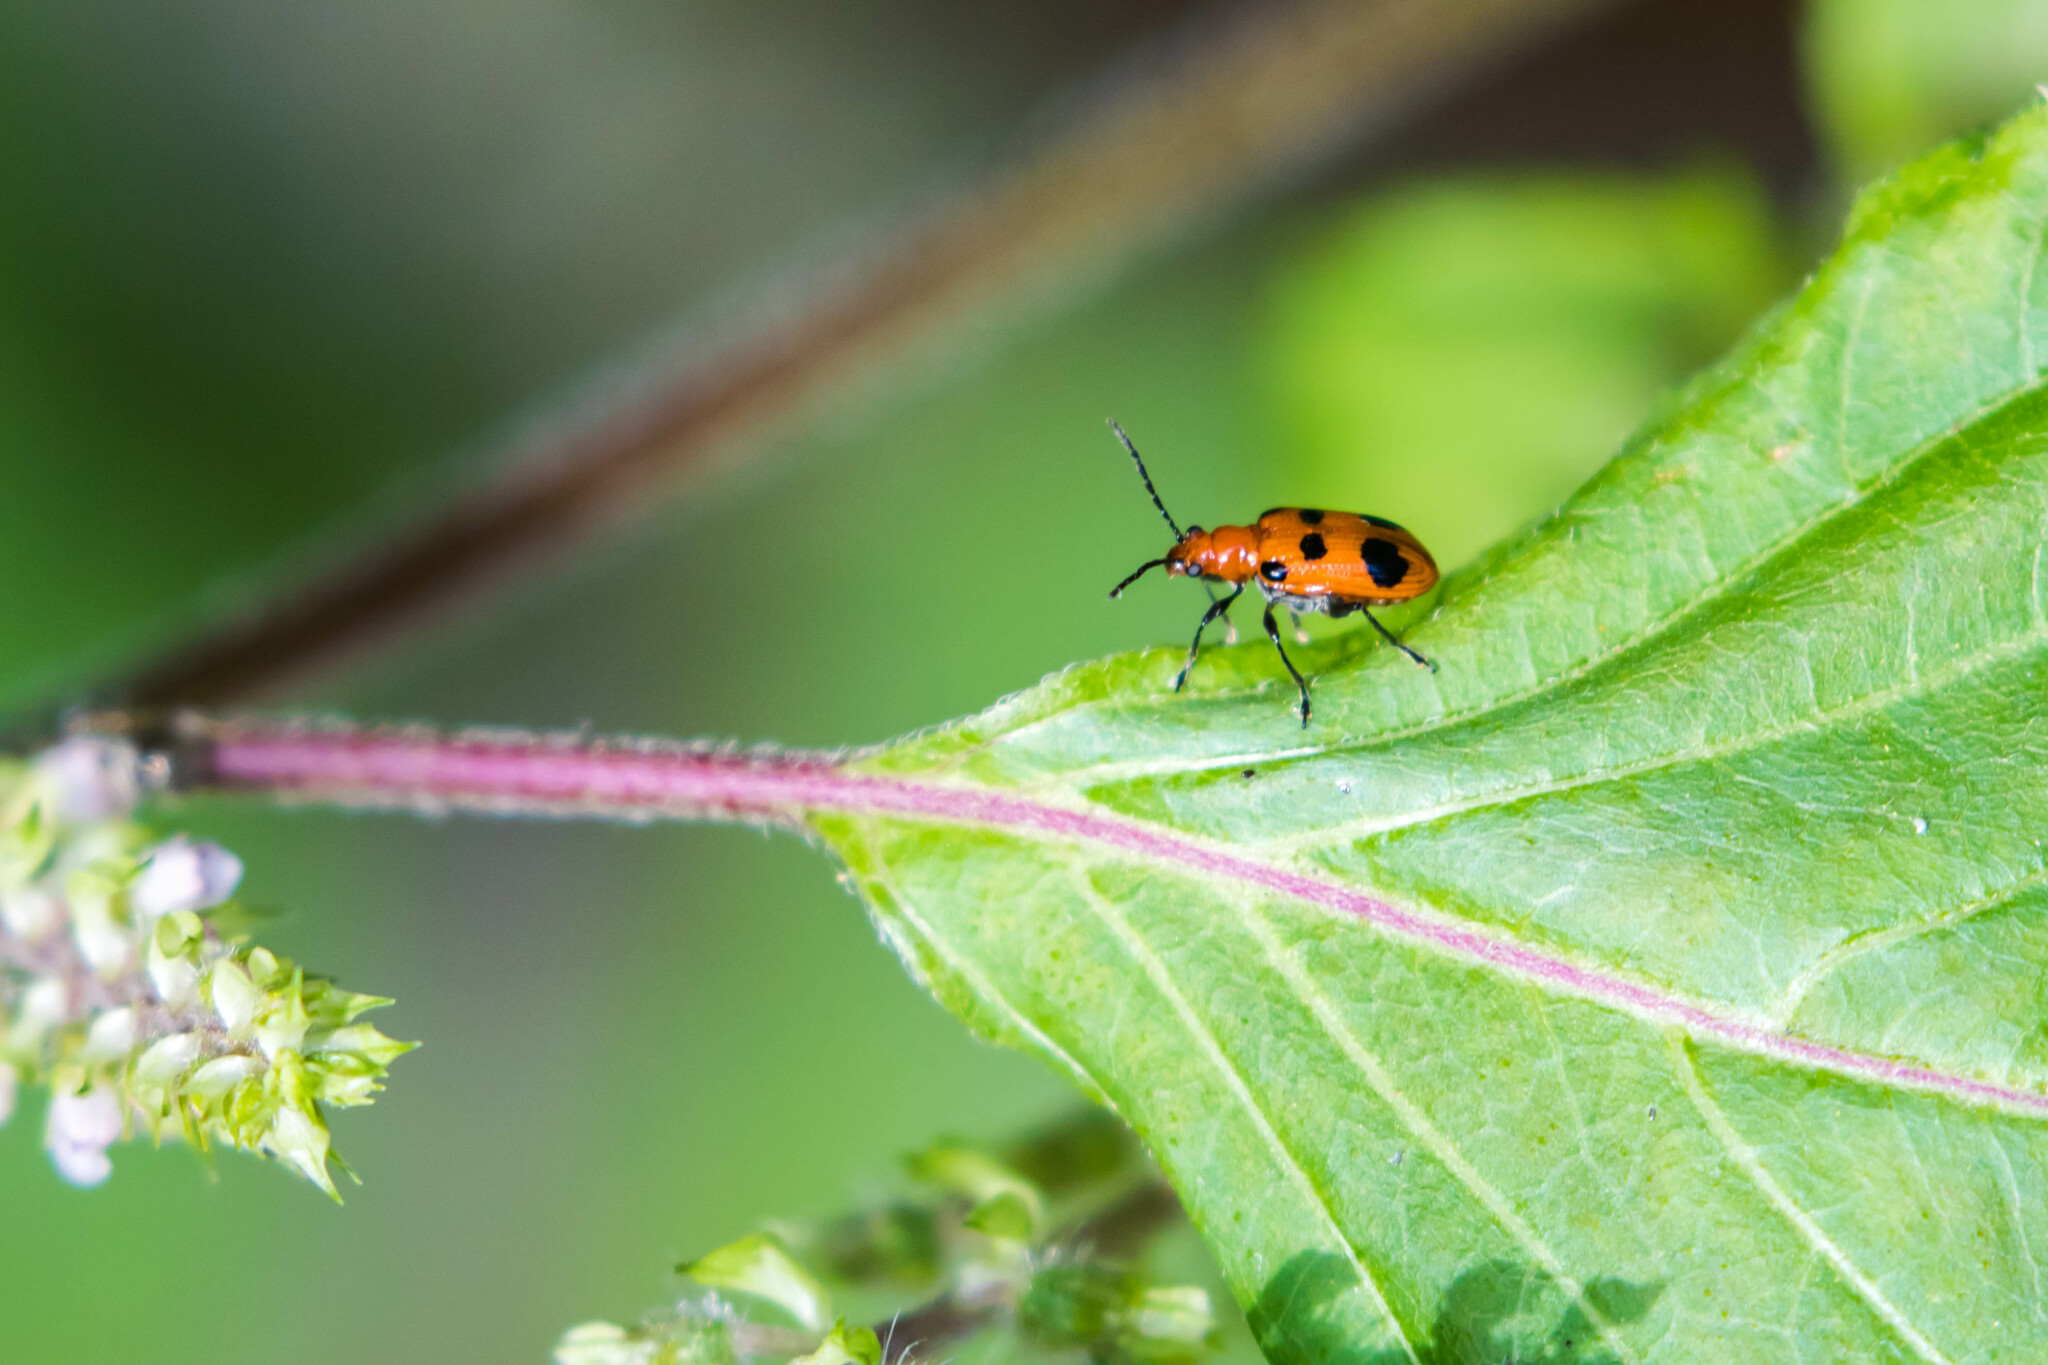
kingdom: Animalia
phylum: Arthropoda
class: Insecta
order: Coleoptera
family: Chrysomelidae
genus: Neolema
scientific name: Neolema sexpunctata
